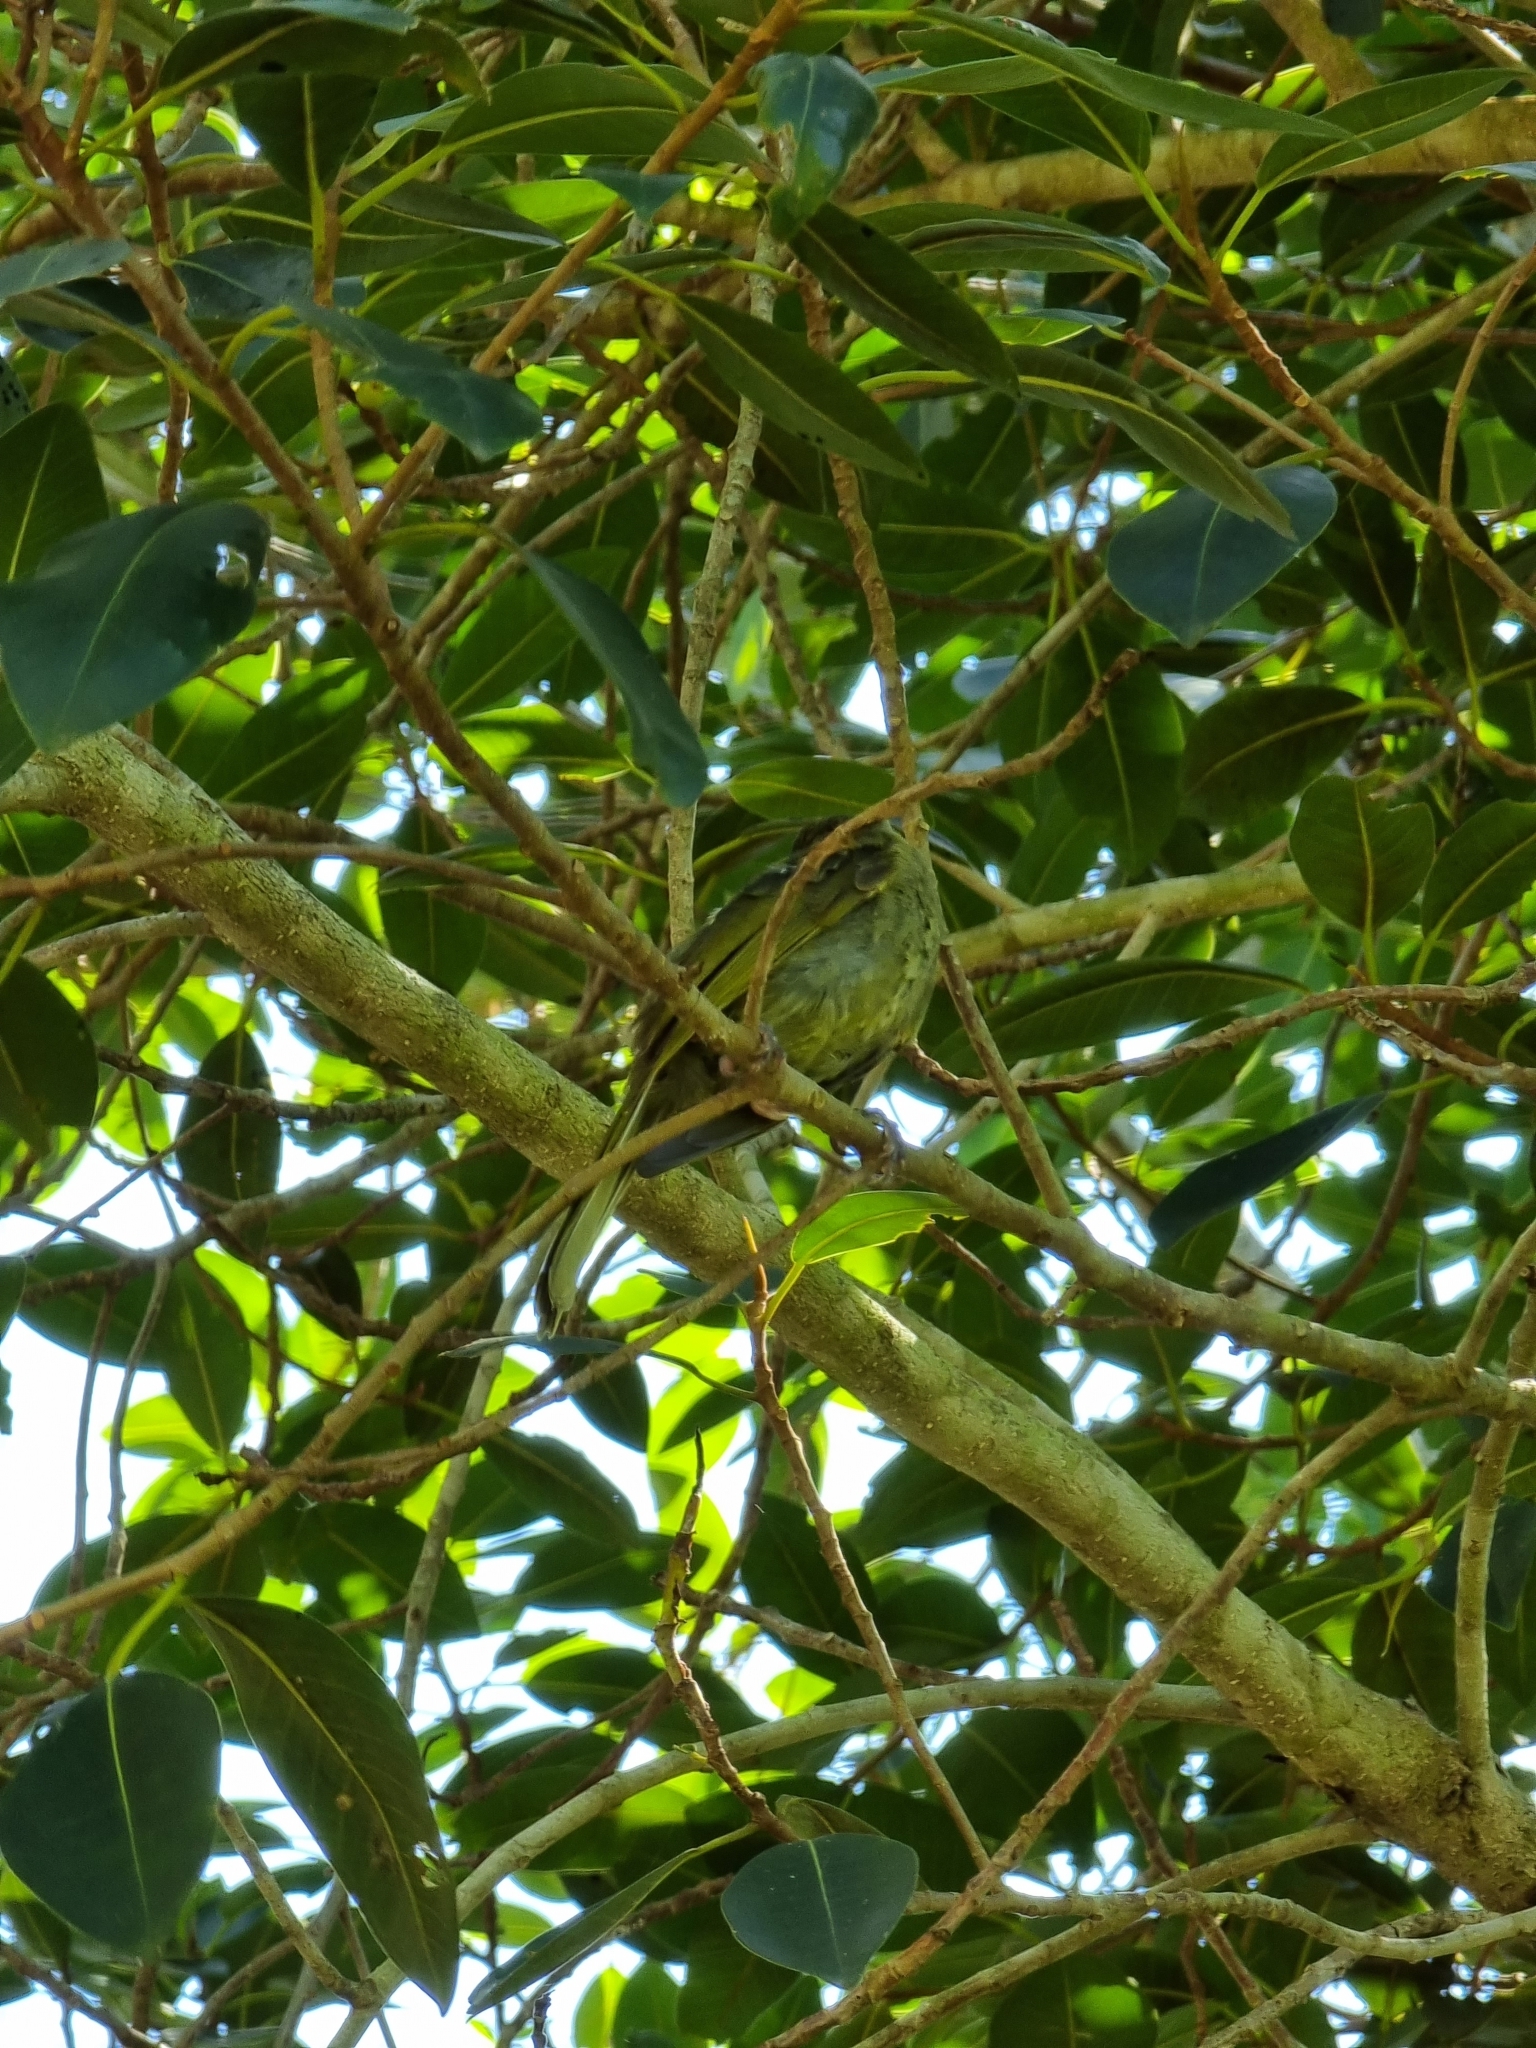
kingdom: Animalia
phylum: Chordata
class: Aves
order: Passeriformes
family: Meliphagidae
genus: Meliphaga
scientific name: Meliphaga lewinii
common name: Lewin's honeyeater
